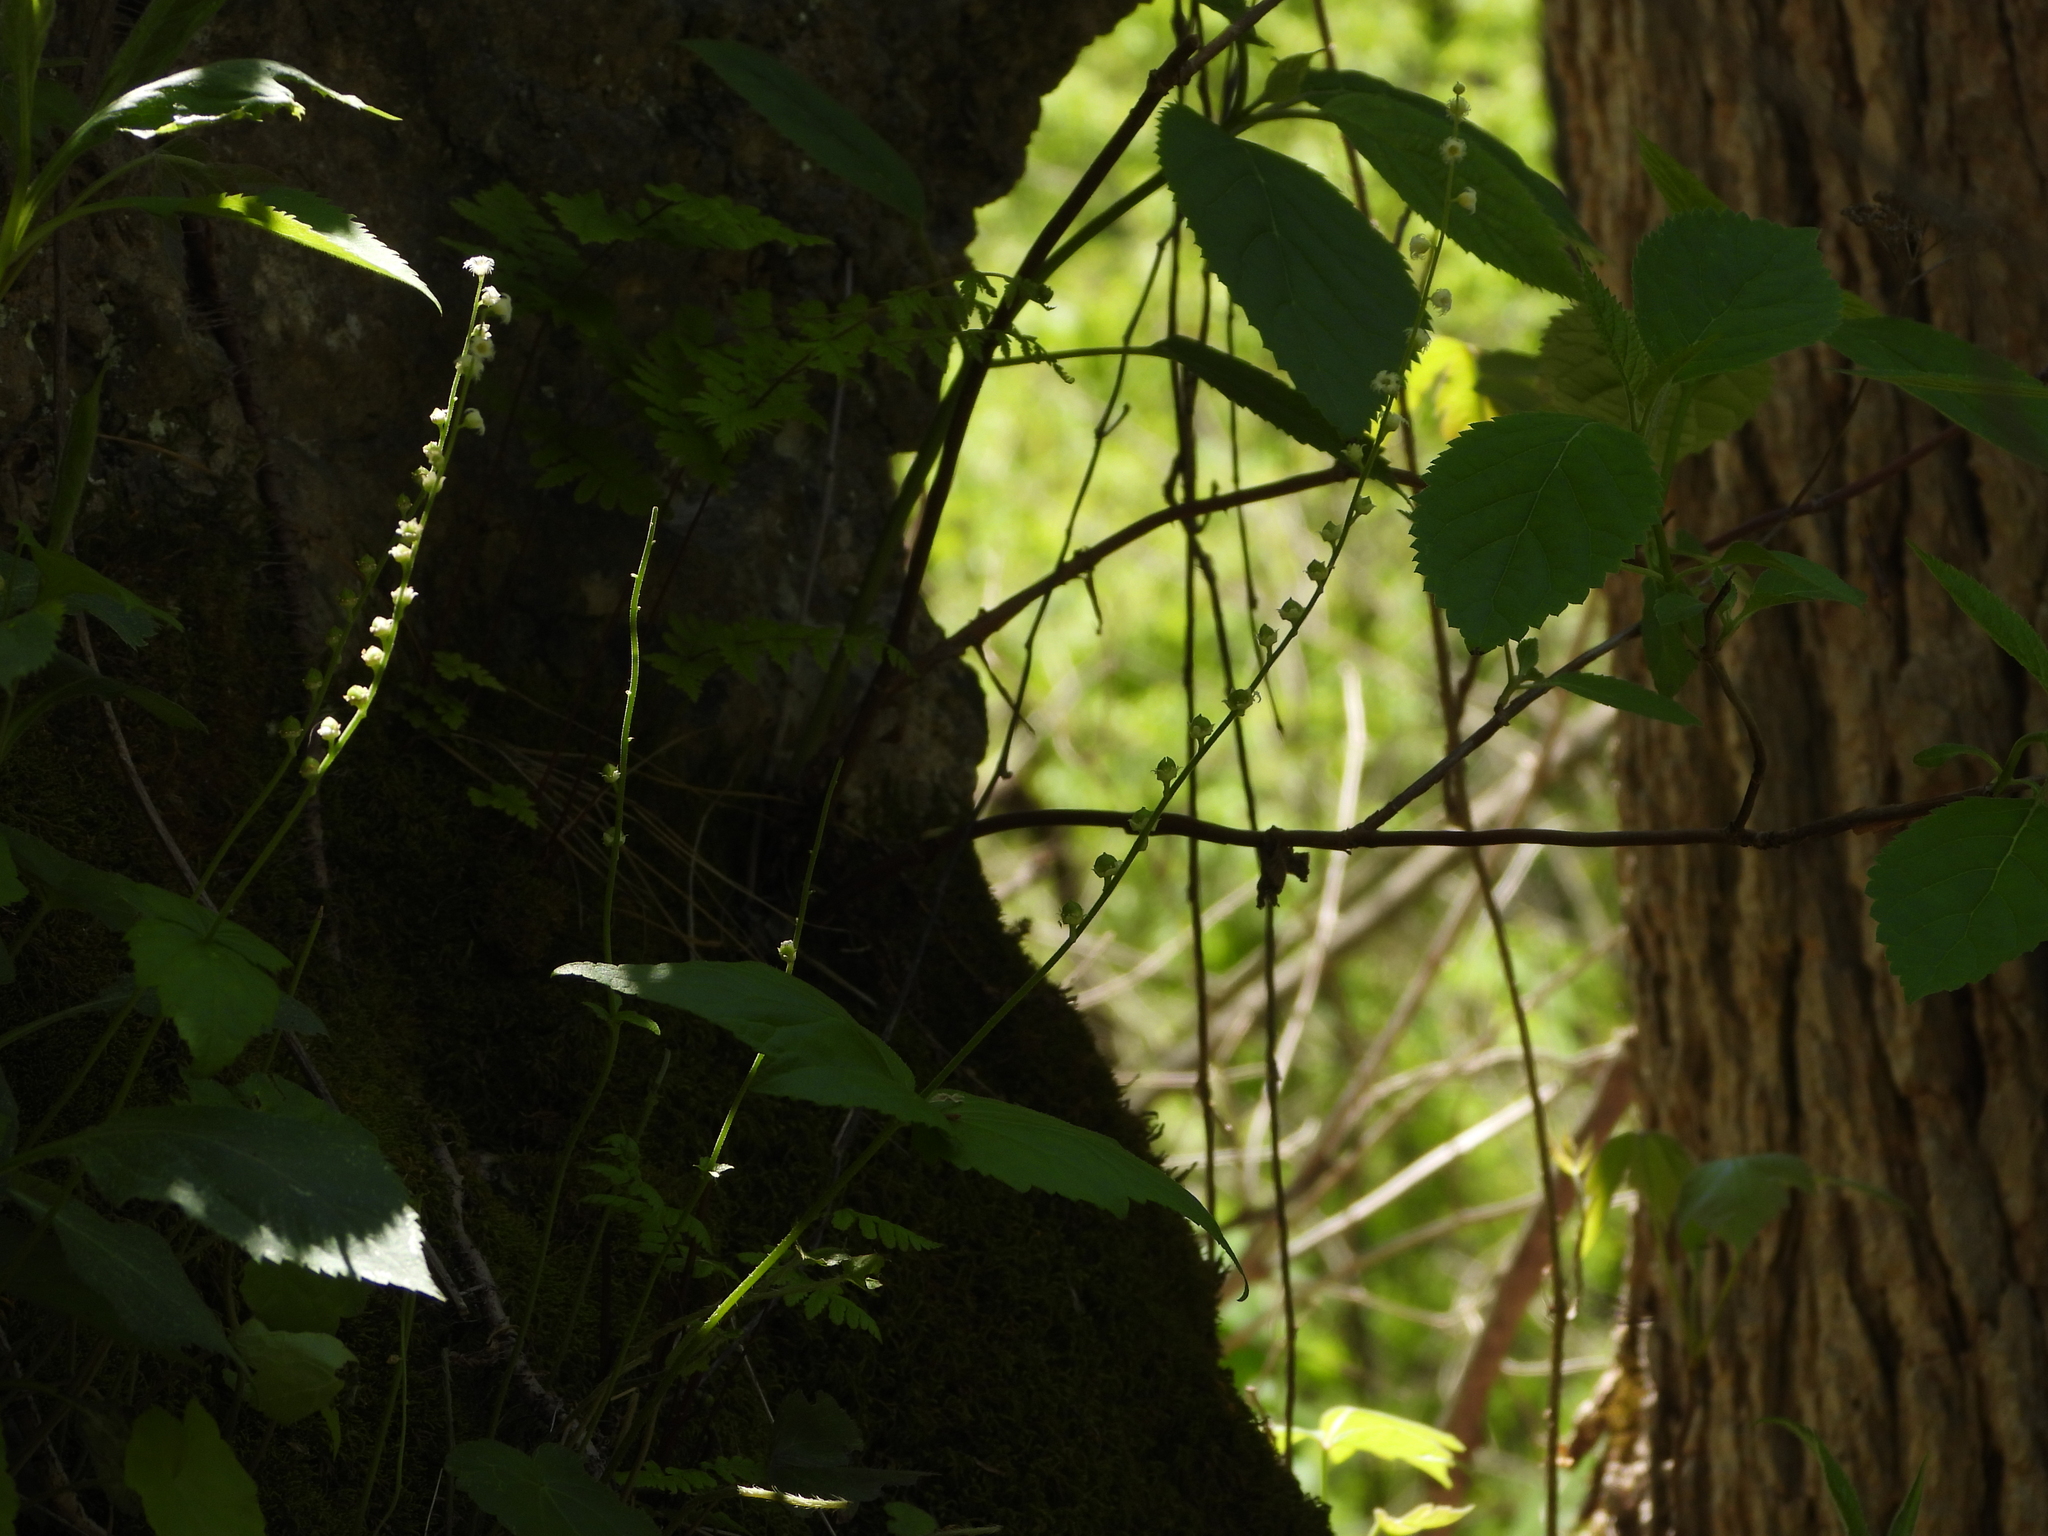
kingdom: Plantae
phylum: Tracheophyta
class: Magnoliopsida
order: Saxifragales
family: Saxifragaceae
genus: Mitella
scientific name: Mitella diphylla
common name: Coolwort
